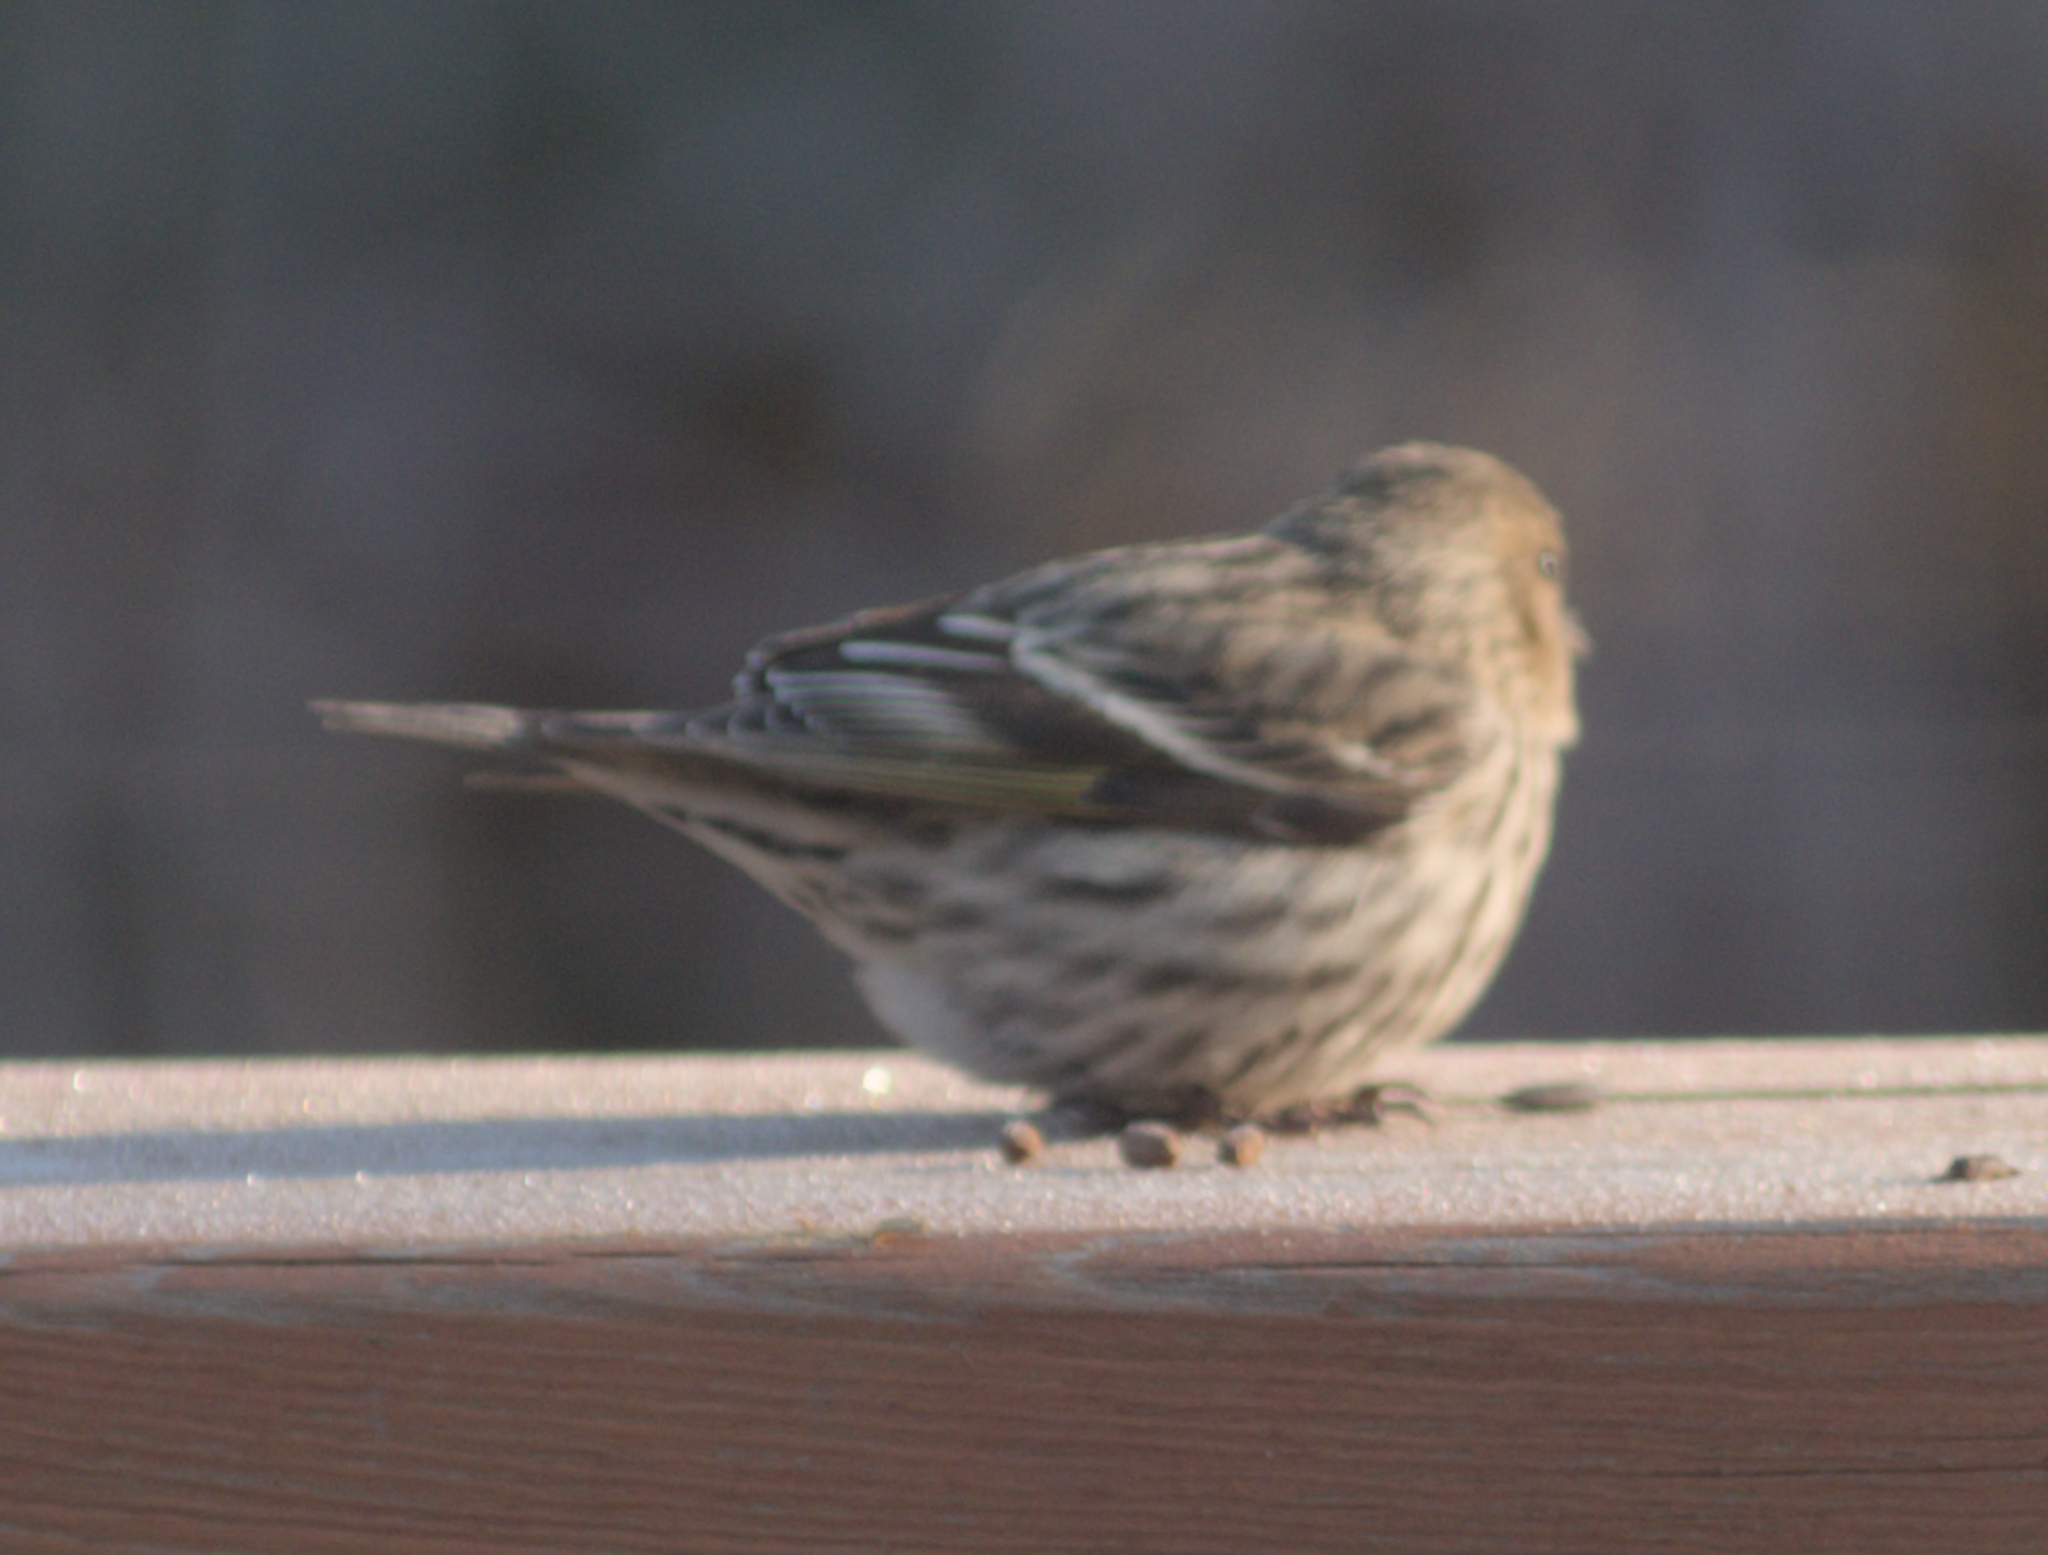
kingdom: Animalia
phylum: Chordata
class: Aves
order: Passeriformes
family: Fringillidae
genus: Spinus
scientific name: Spinus pinus
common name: Pine siskin
